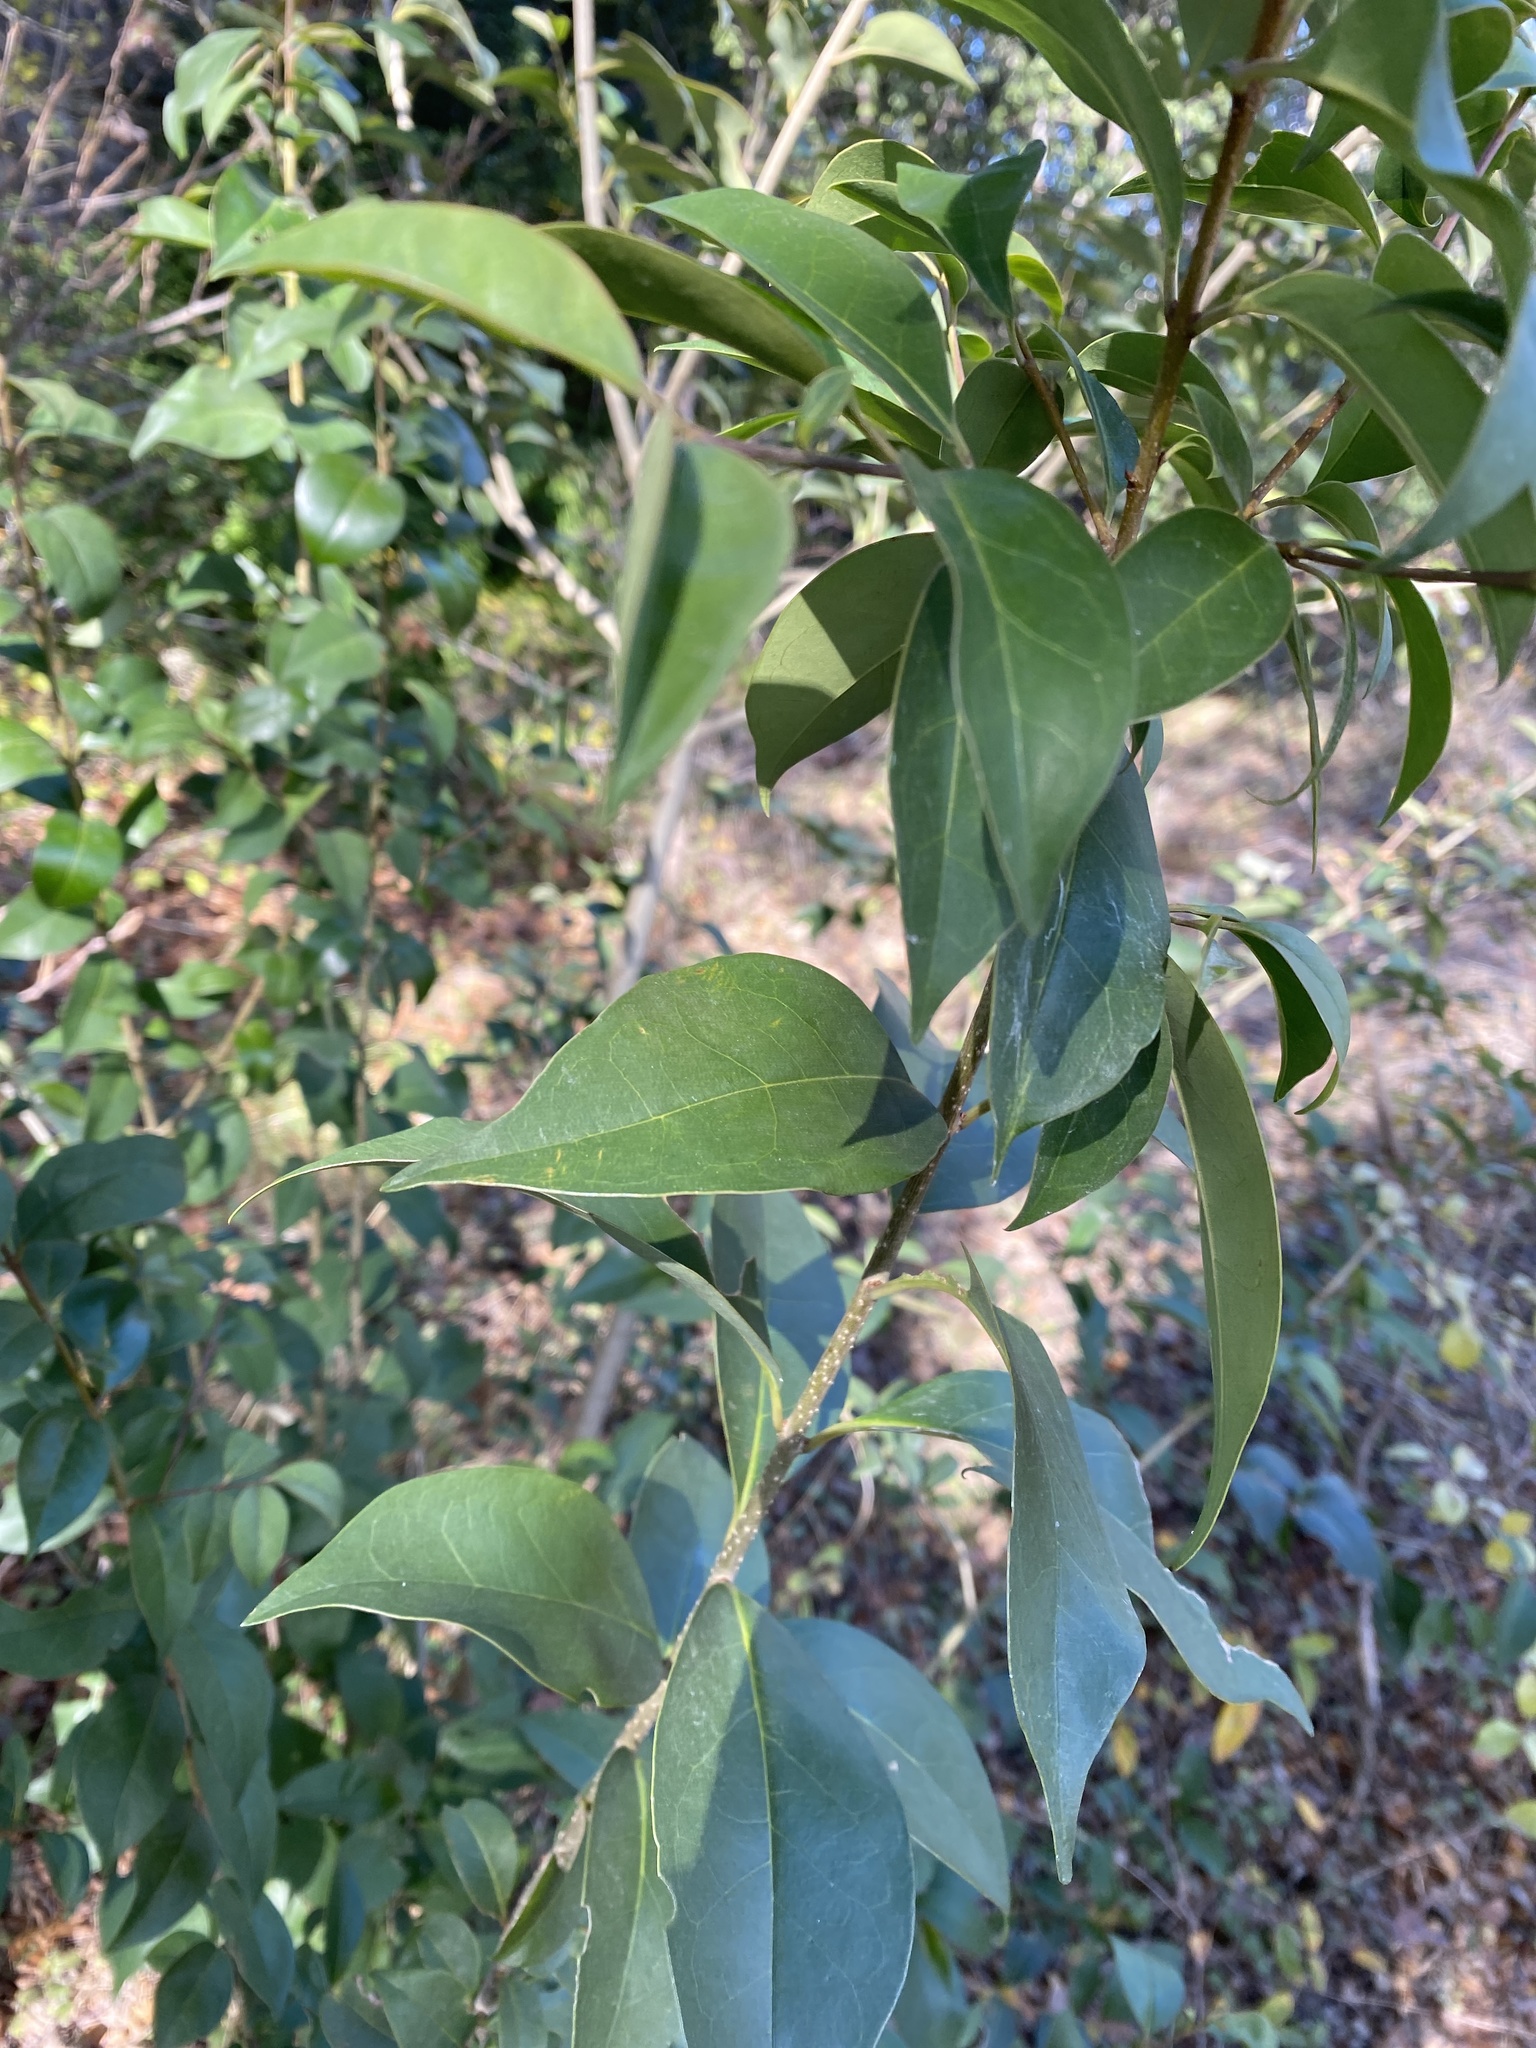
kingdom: Plantae
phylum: Tracheophyta
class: Magnoliopsida
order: Lamiales
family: Oleaceae
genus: Ligustrum
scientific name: Ligustrum lucidum
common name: Glossy privet
